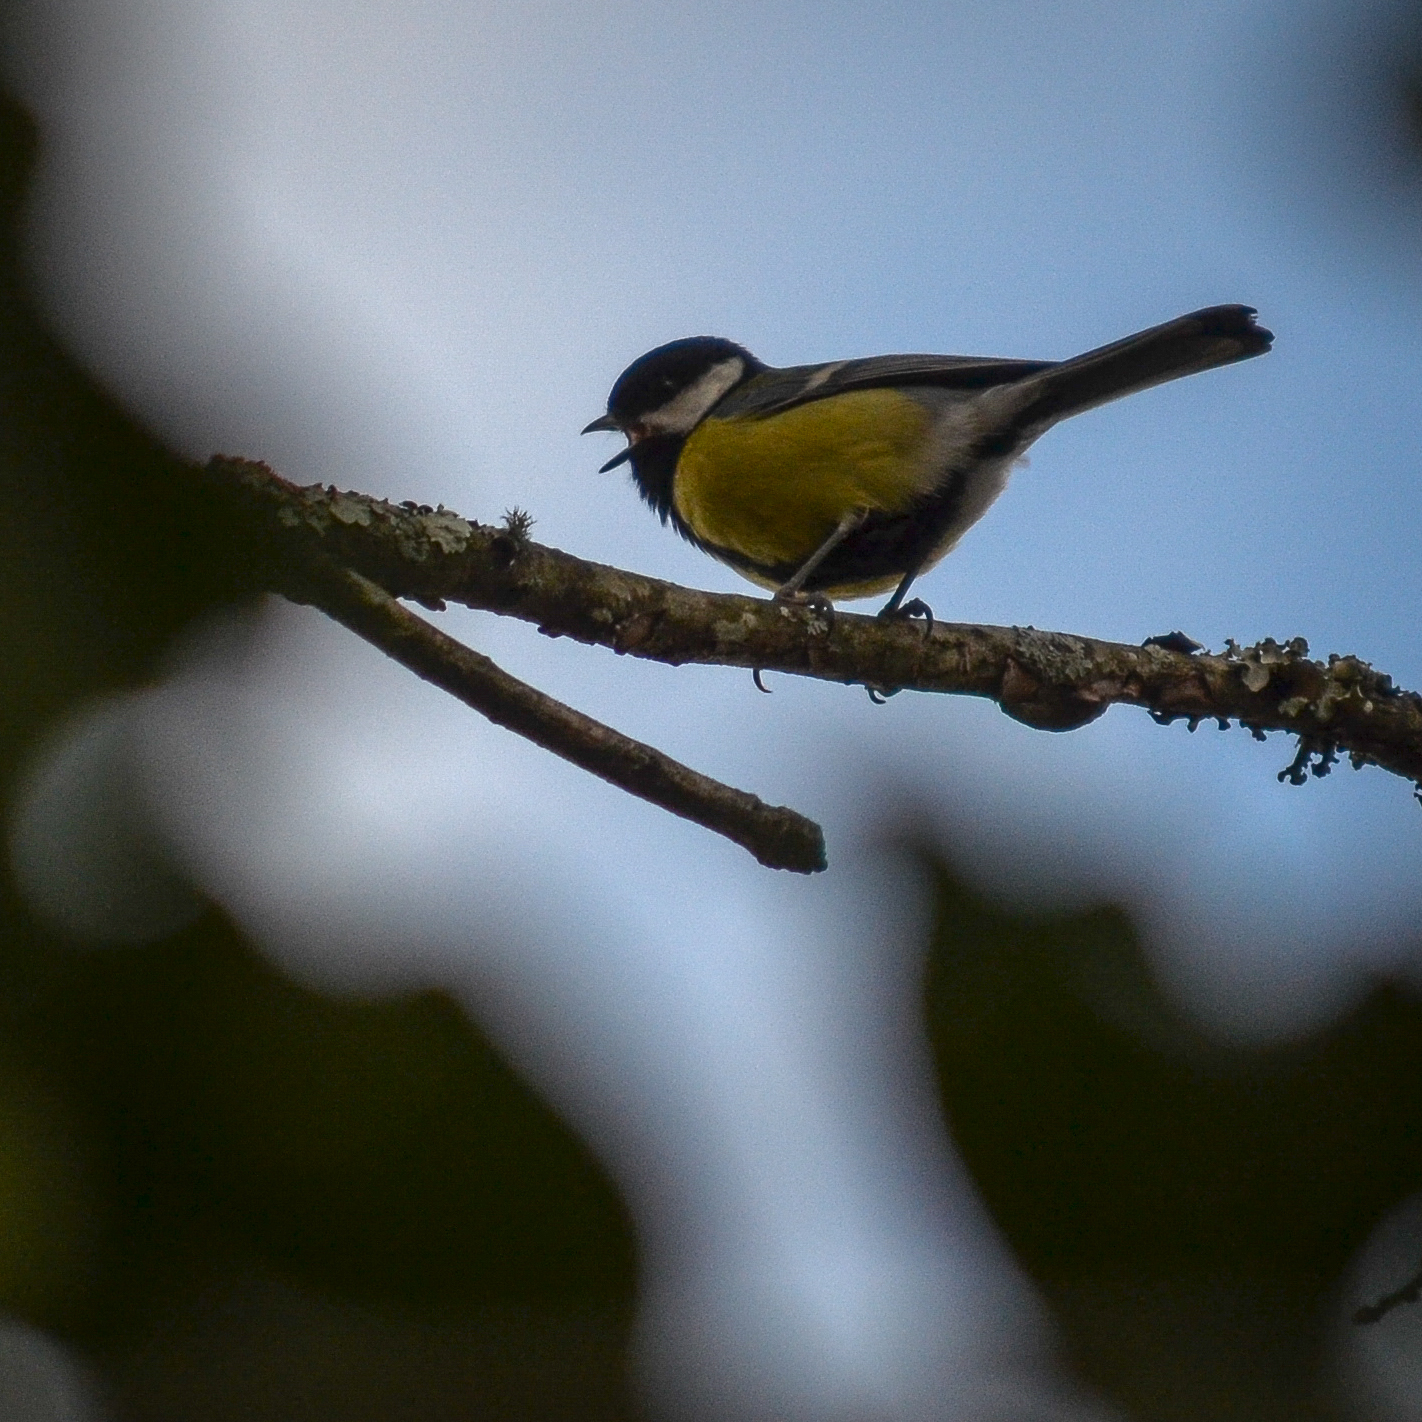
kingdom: Animalia
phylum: Chordata
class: Aves
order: Passeriformes
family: Paridae
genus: Parus
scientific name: Parus major
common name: Great tit
